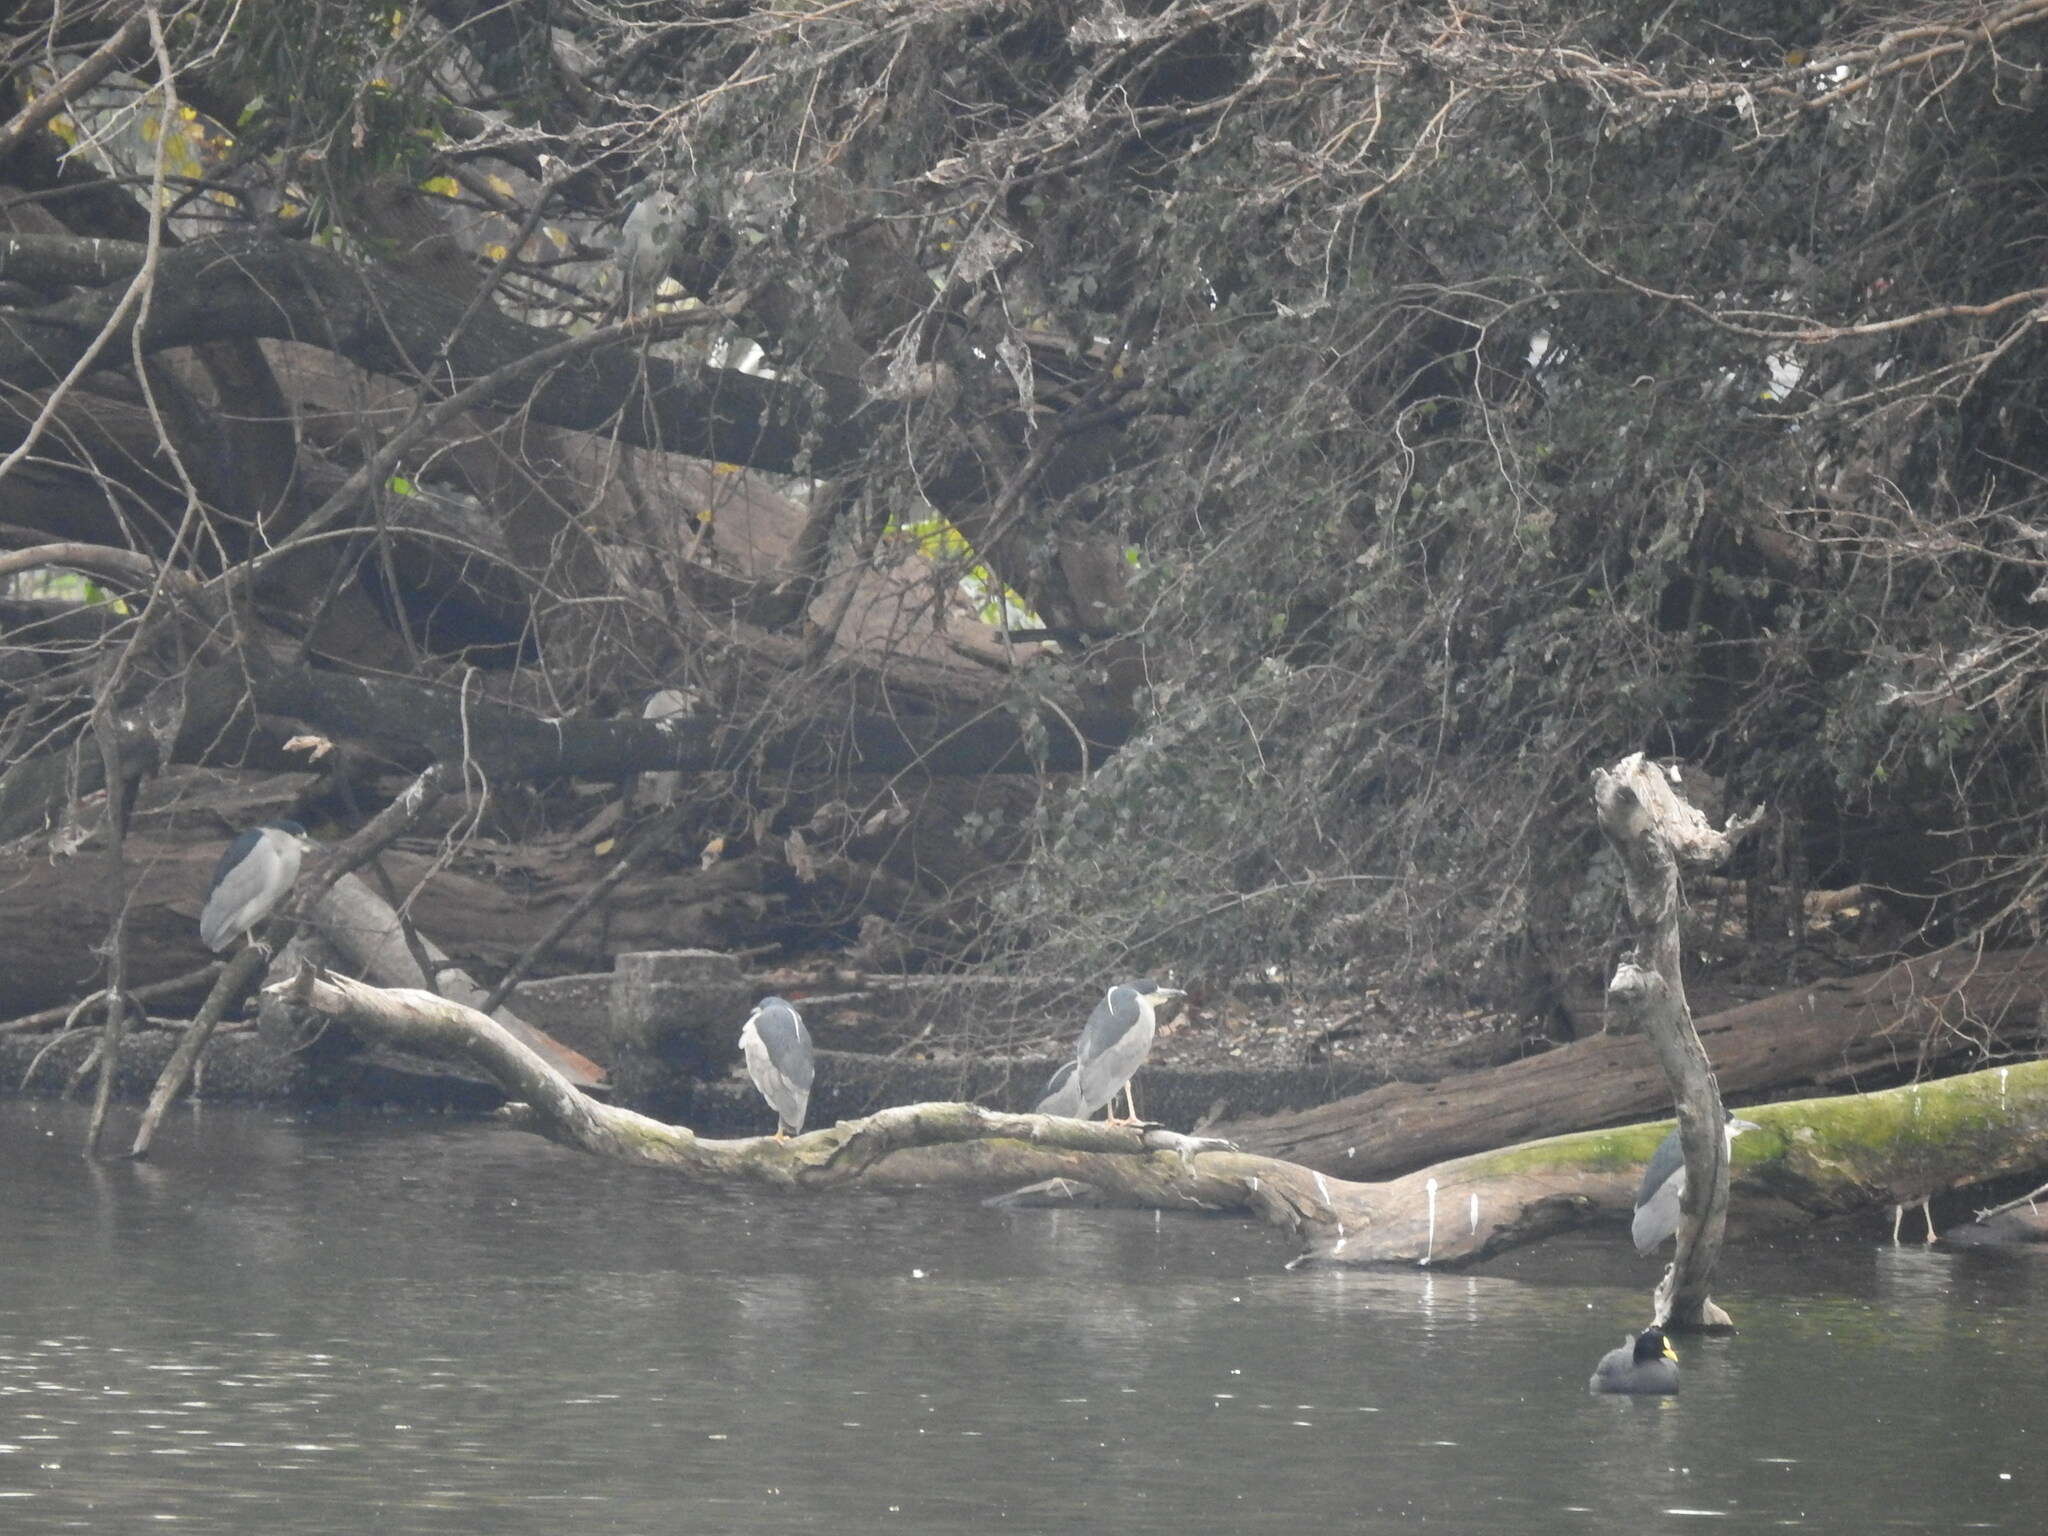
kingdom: Animalia
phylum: Chordata
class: Aves
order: Pelecaniformes
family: Ardeidae
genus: Nycticorax
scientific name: Nycticorax nycticorax
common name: Black-crowned night heron
